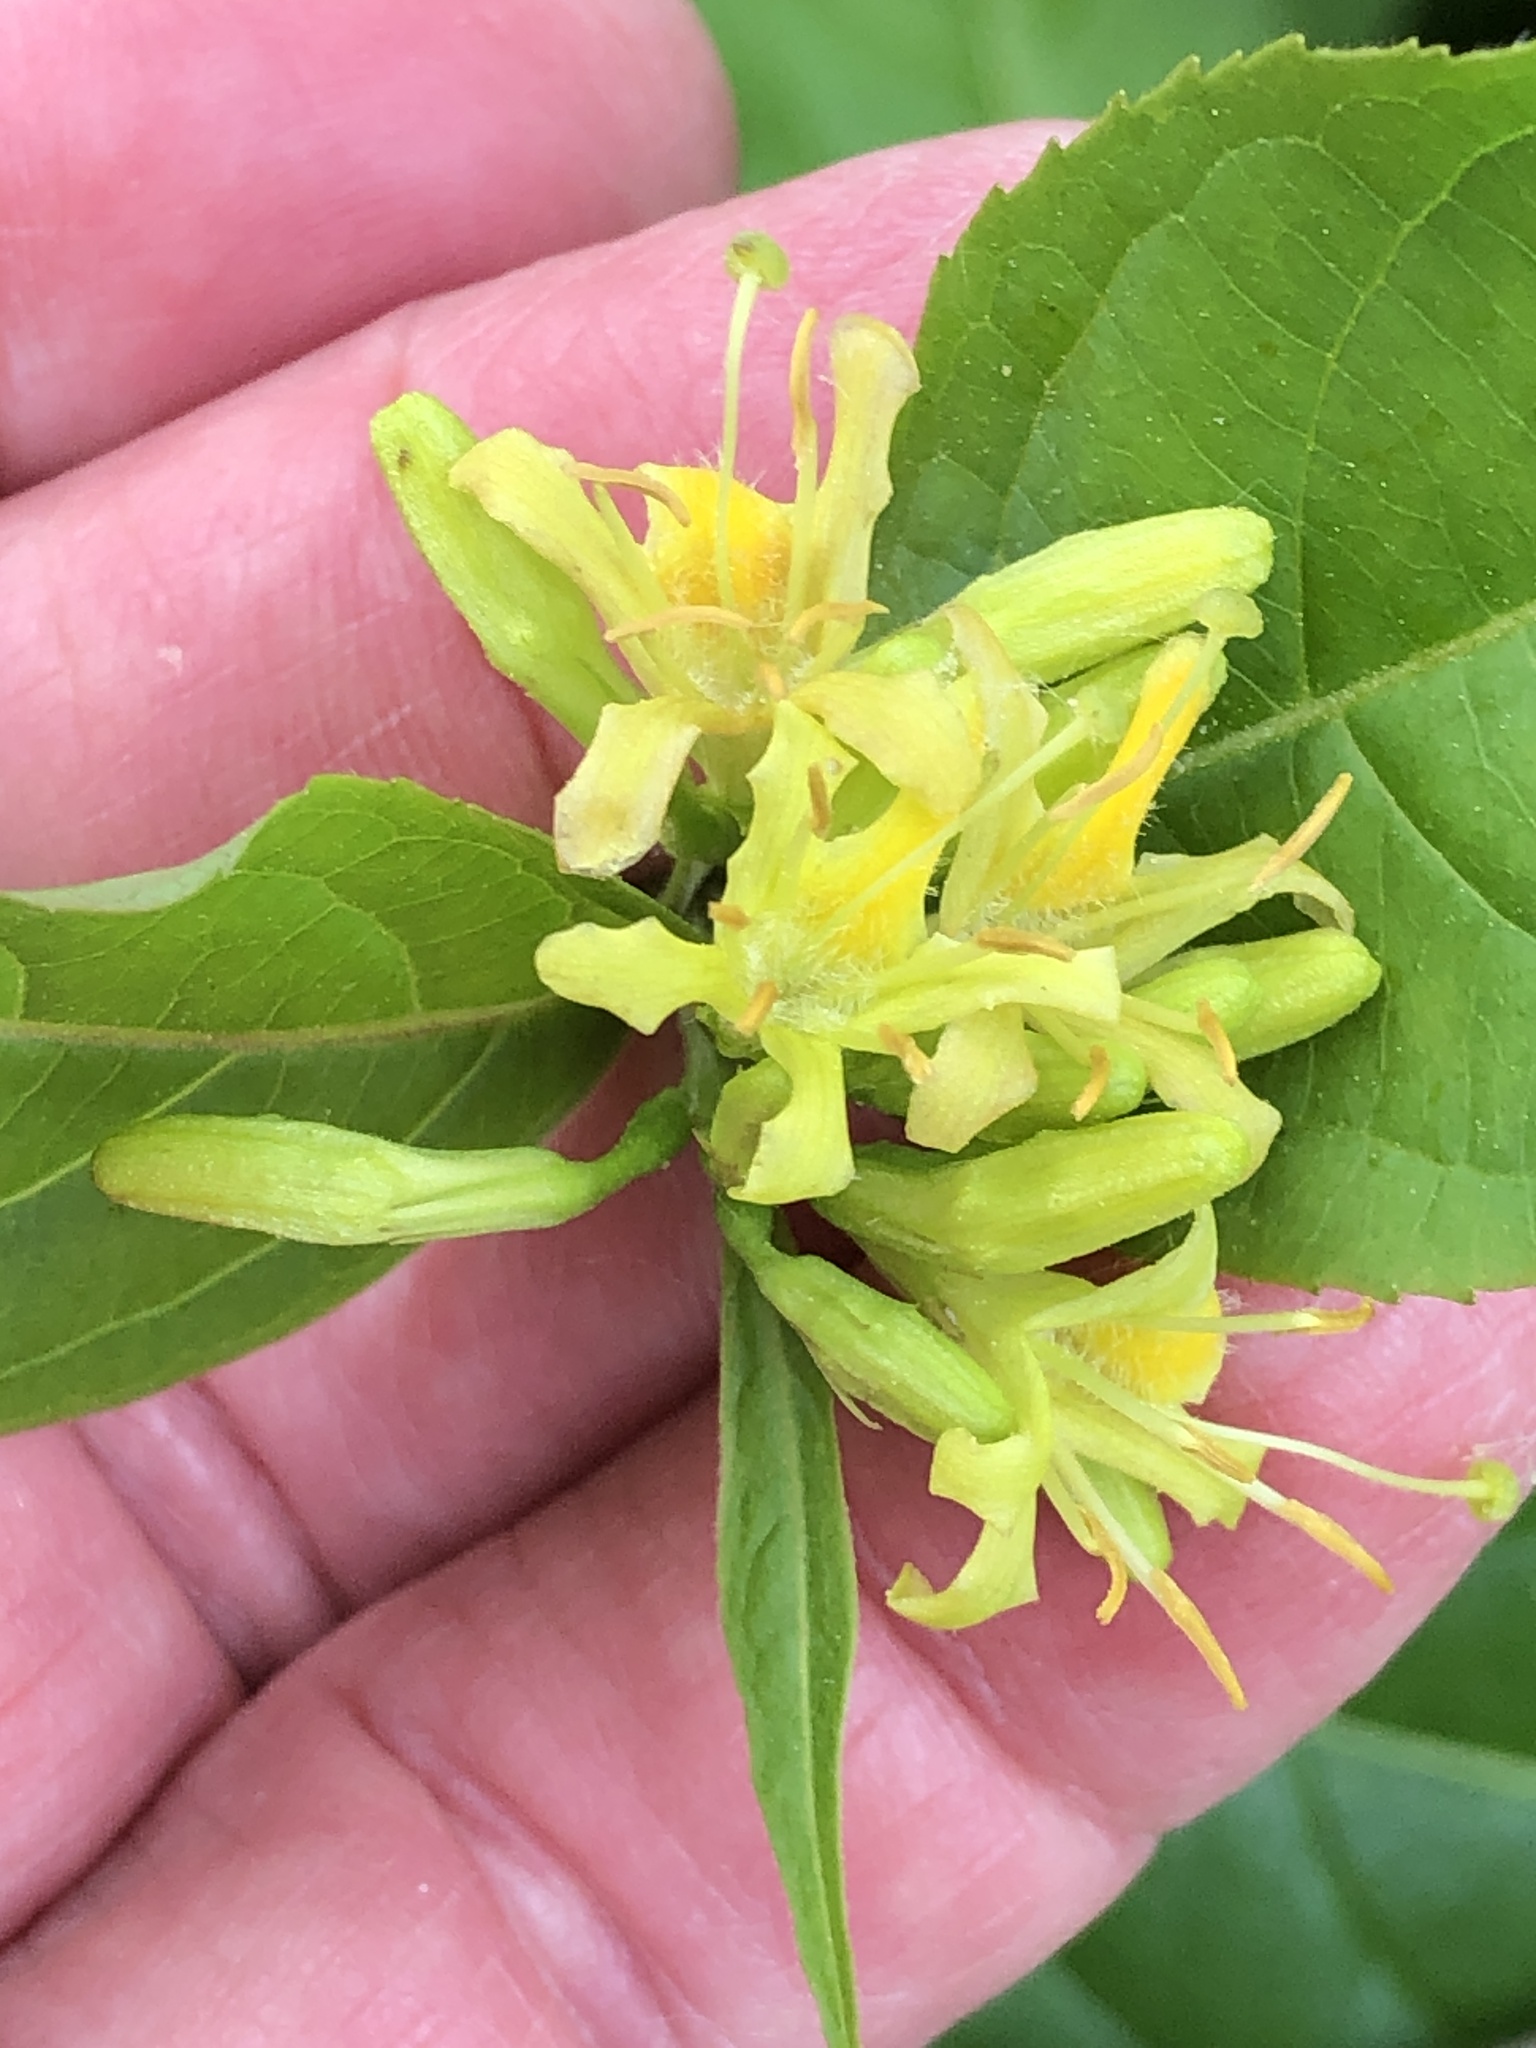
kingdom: Plantae
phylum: Tracheophyta
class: Magnoliopsida
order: Dipsacales
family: Caprifoliaceae
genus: Diervilla
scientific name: Diervilla lonicera
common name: Bush-honeysuckle
